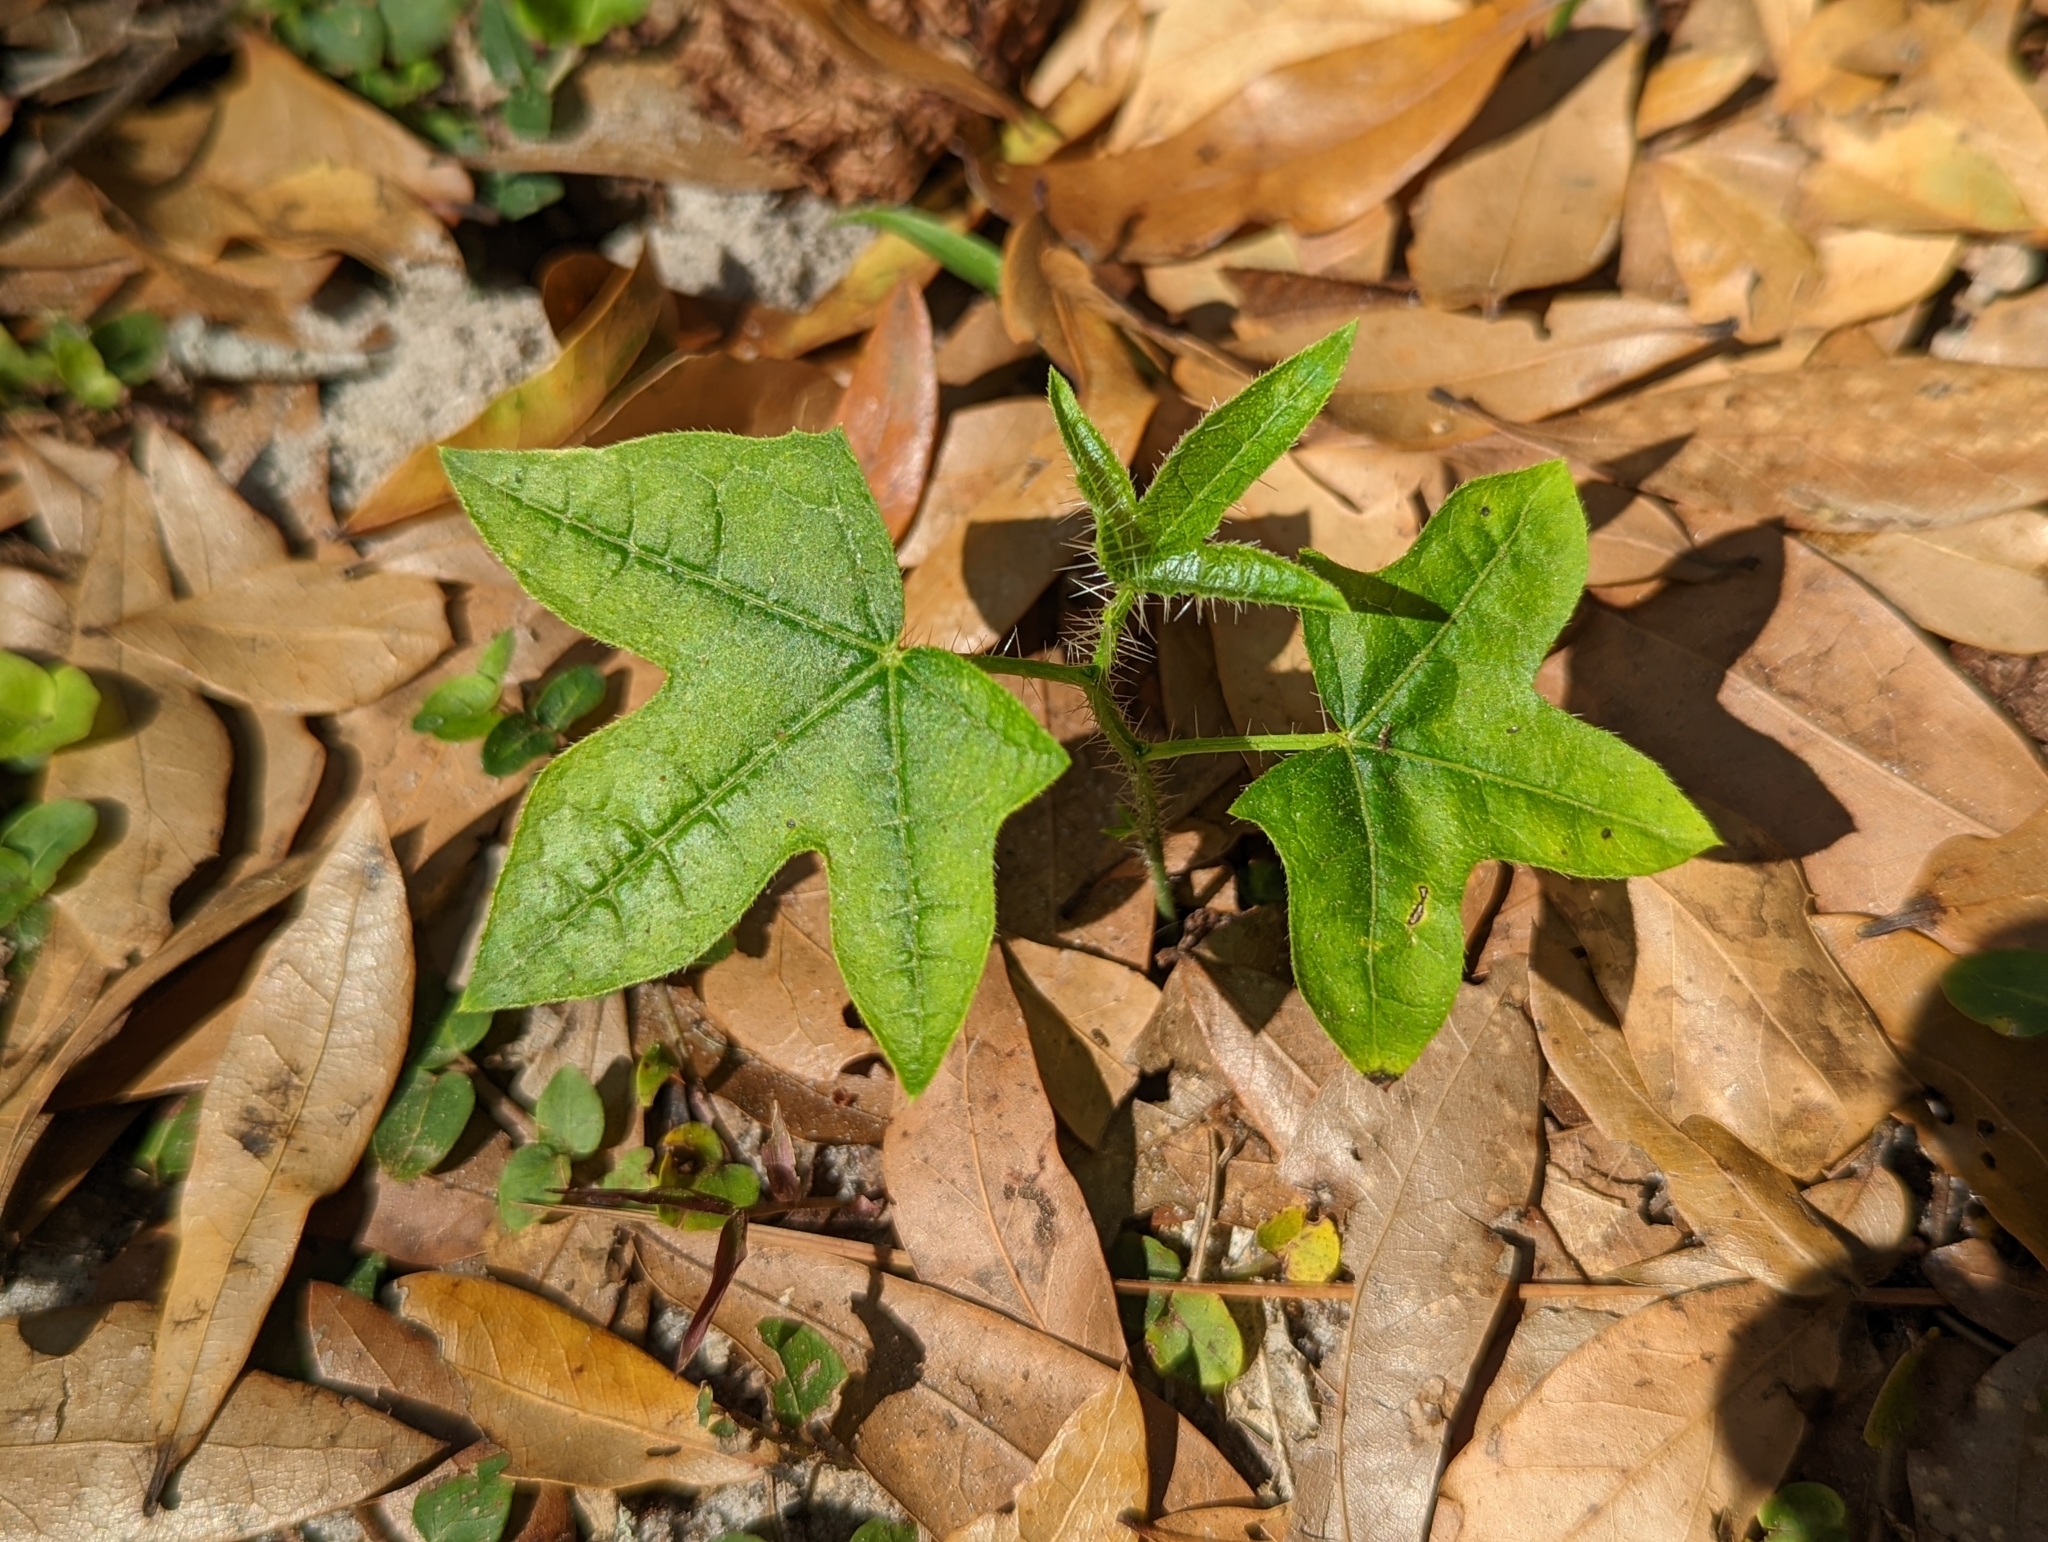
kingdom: Plantae
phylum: Tracheophyta
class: Magnoliopsida
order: Malpighiales
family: Euphorbiaceae
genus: Cnidoscolus
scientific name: Cnidoscolus stimulosus
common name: Bull-nettle
